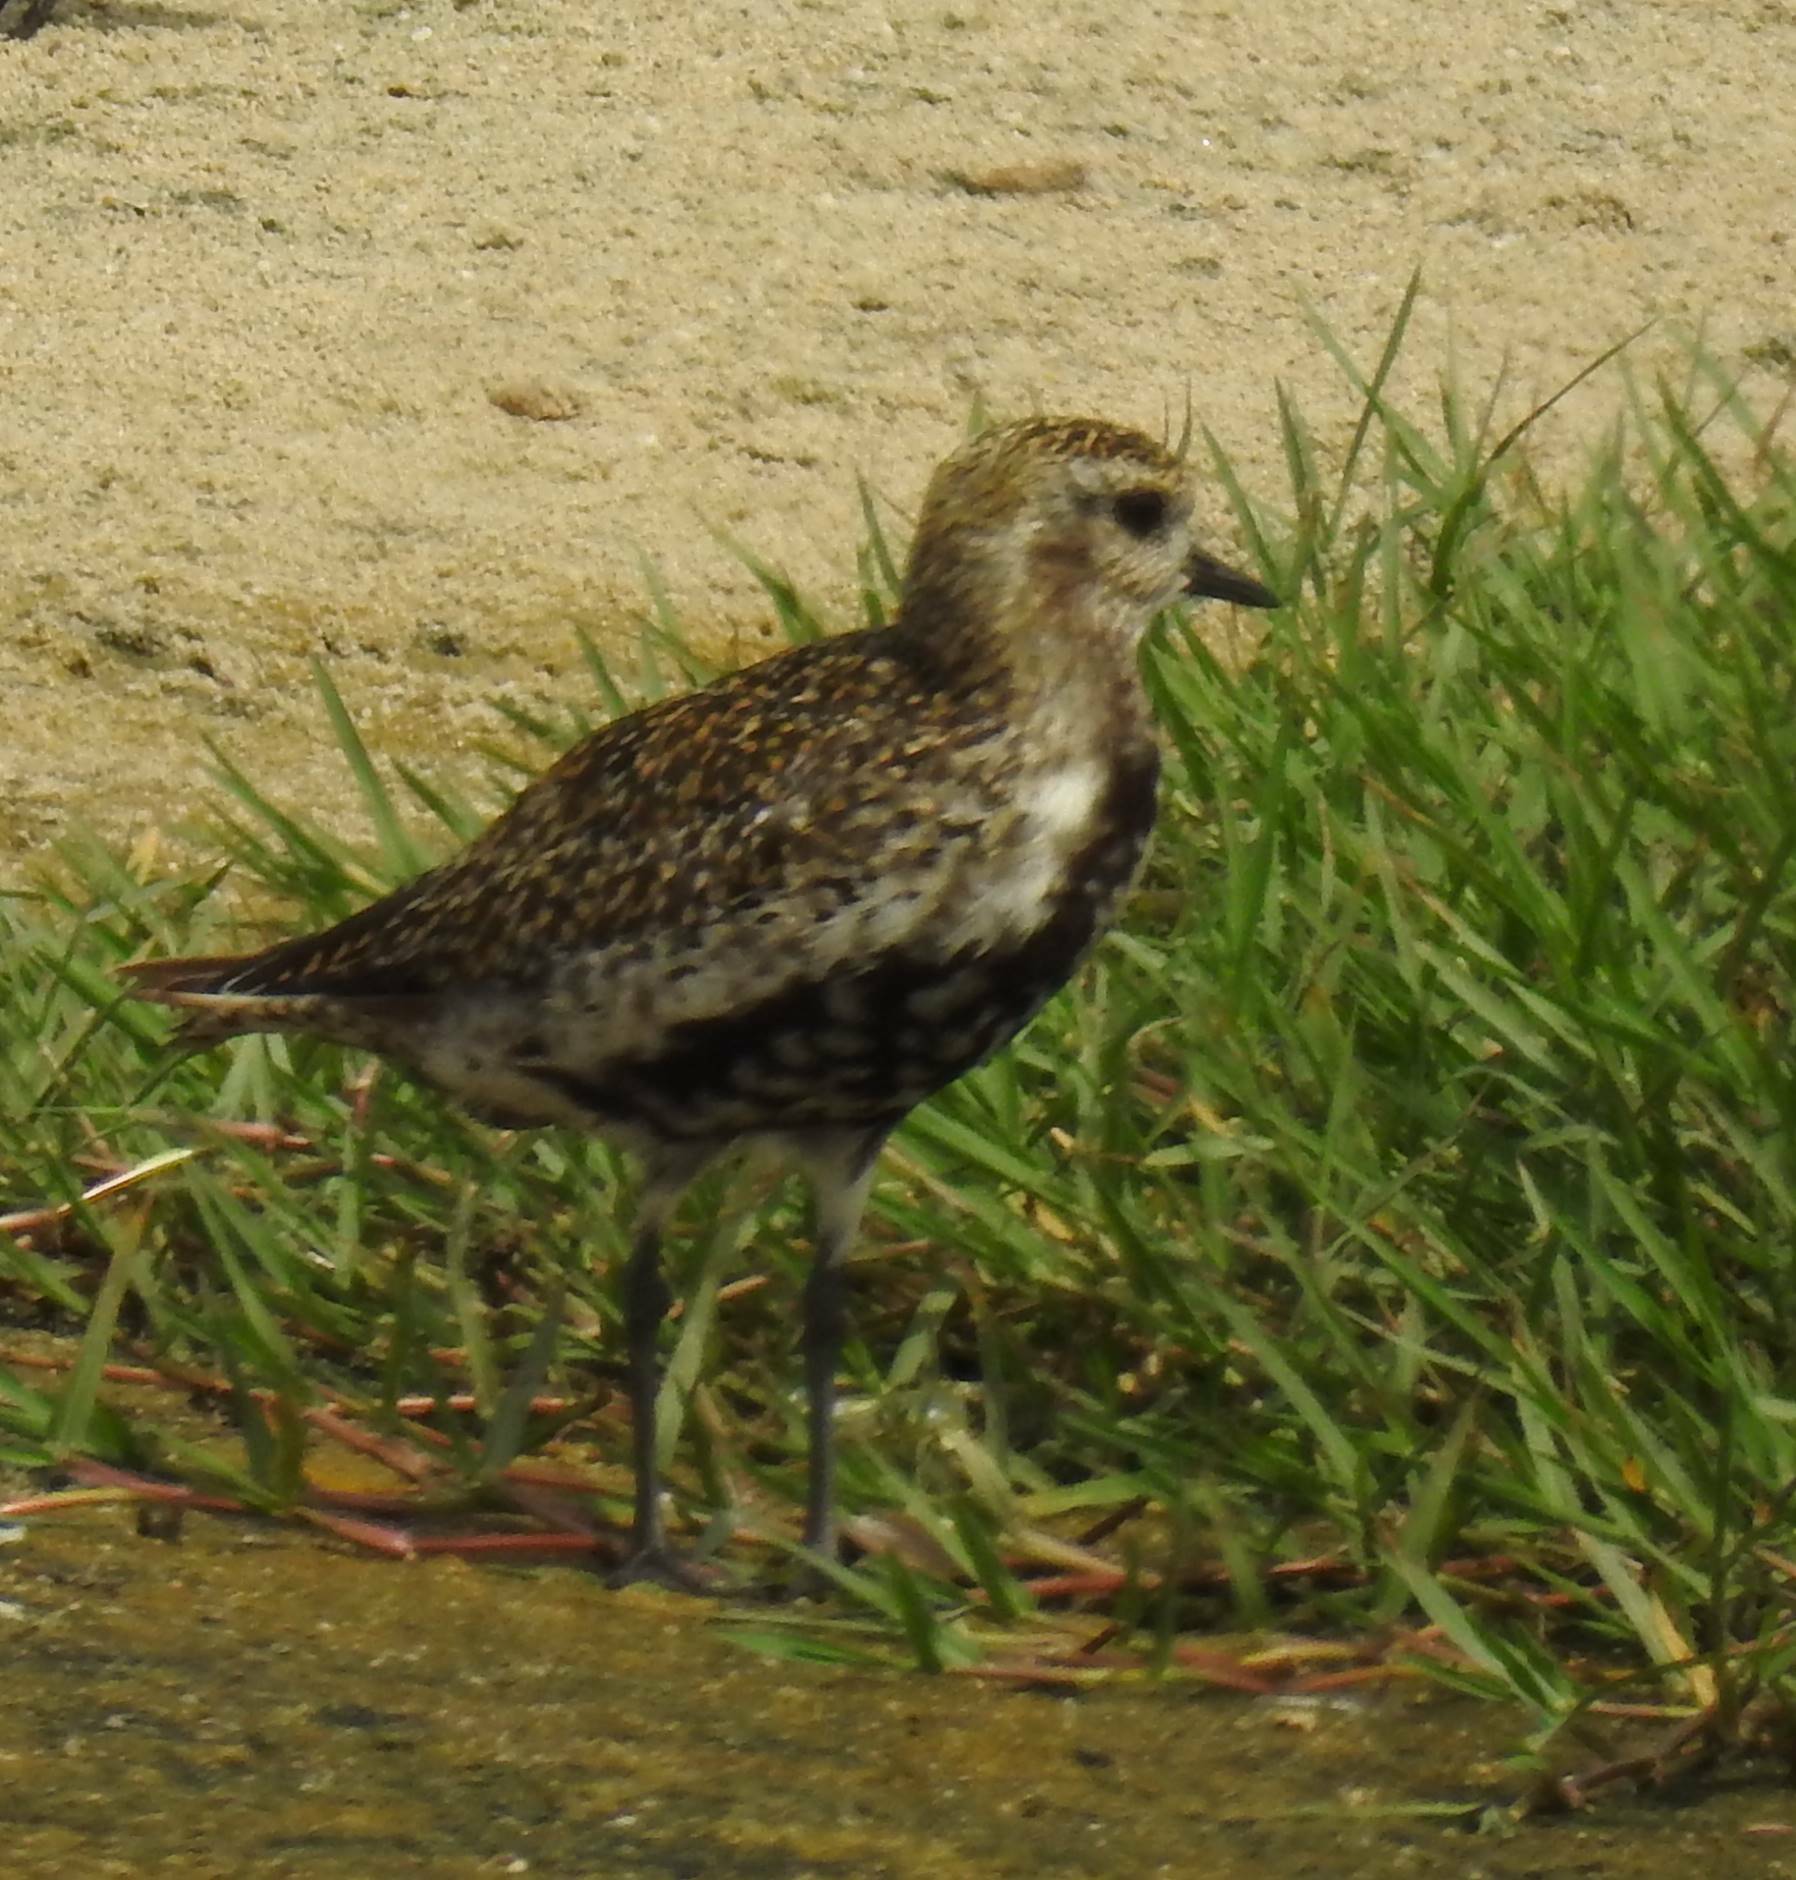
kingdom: Animalia
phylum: Chordata
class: Aves
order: Charadriiformes
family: Charadriidae
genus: Pluvialis
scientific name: Pluvialis apricaria
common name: European golden plover
